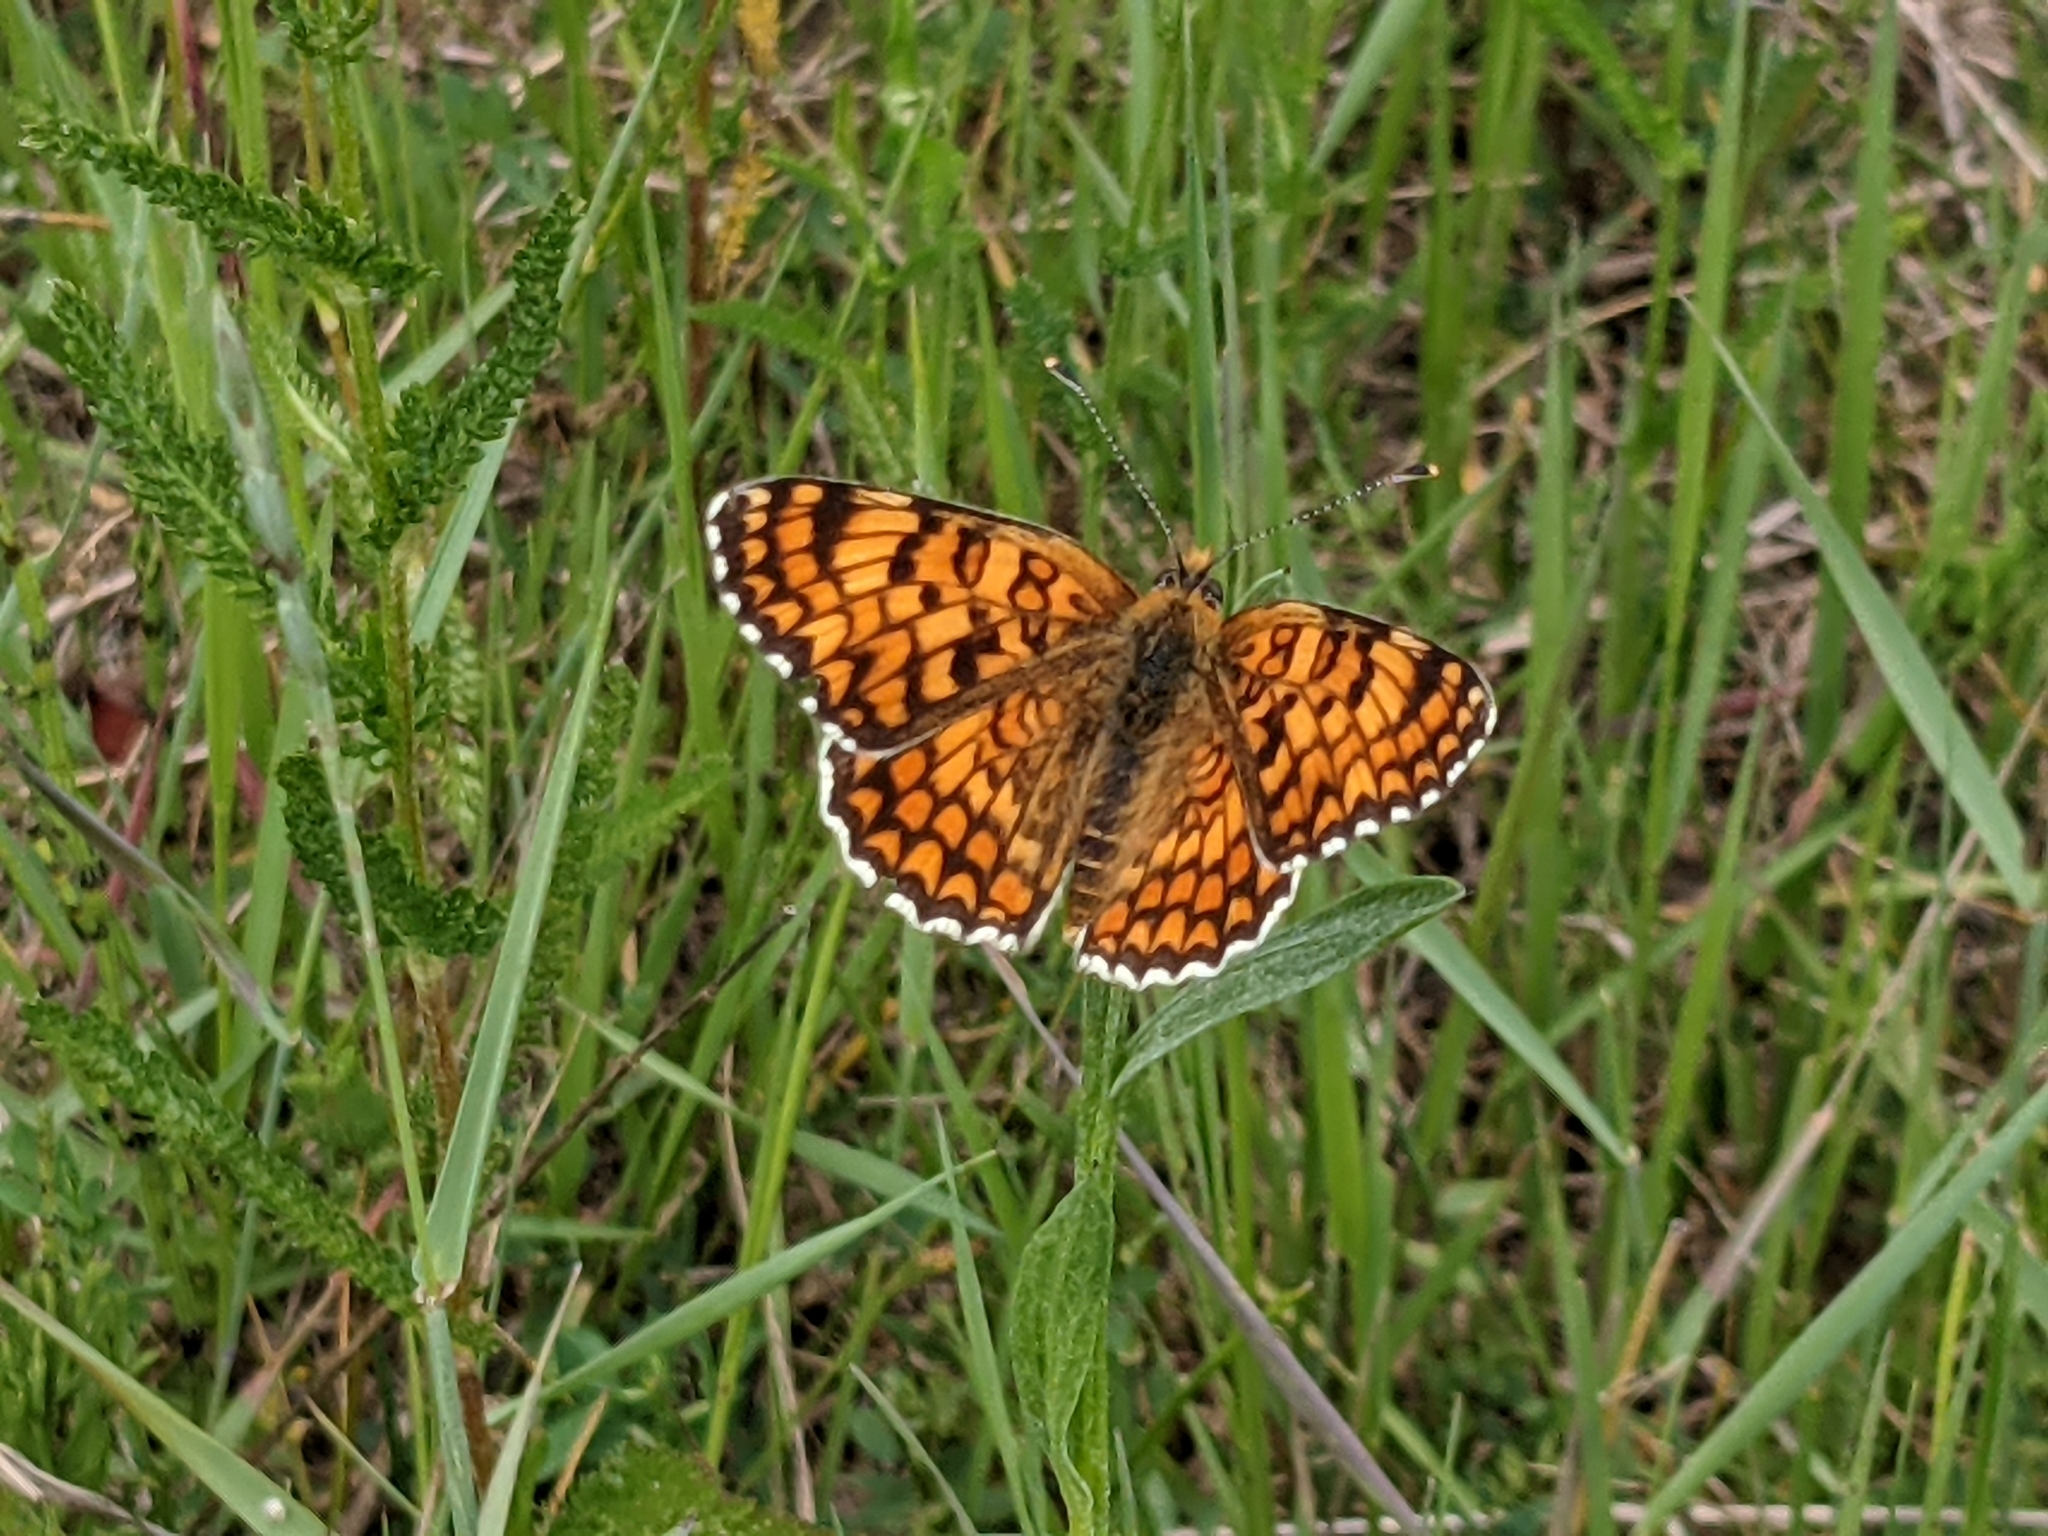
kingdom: Animalia
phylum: Arthropoda
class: Insecta
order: Lepidoptera
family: Nymphalidae
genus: Melitaea
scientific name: Melitaea phoebe
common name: Knapweed fritillary
